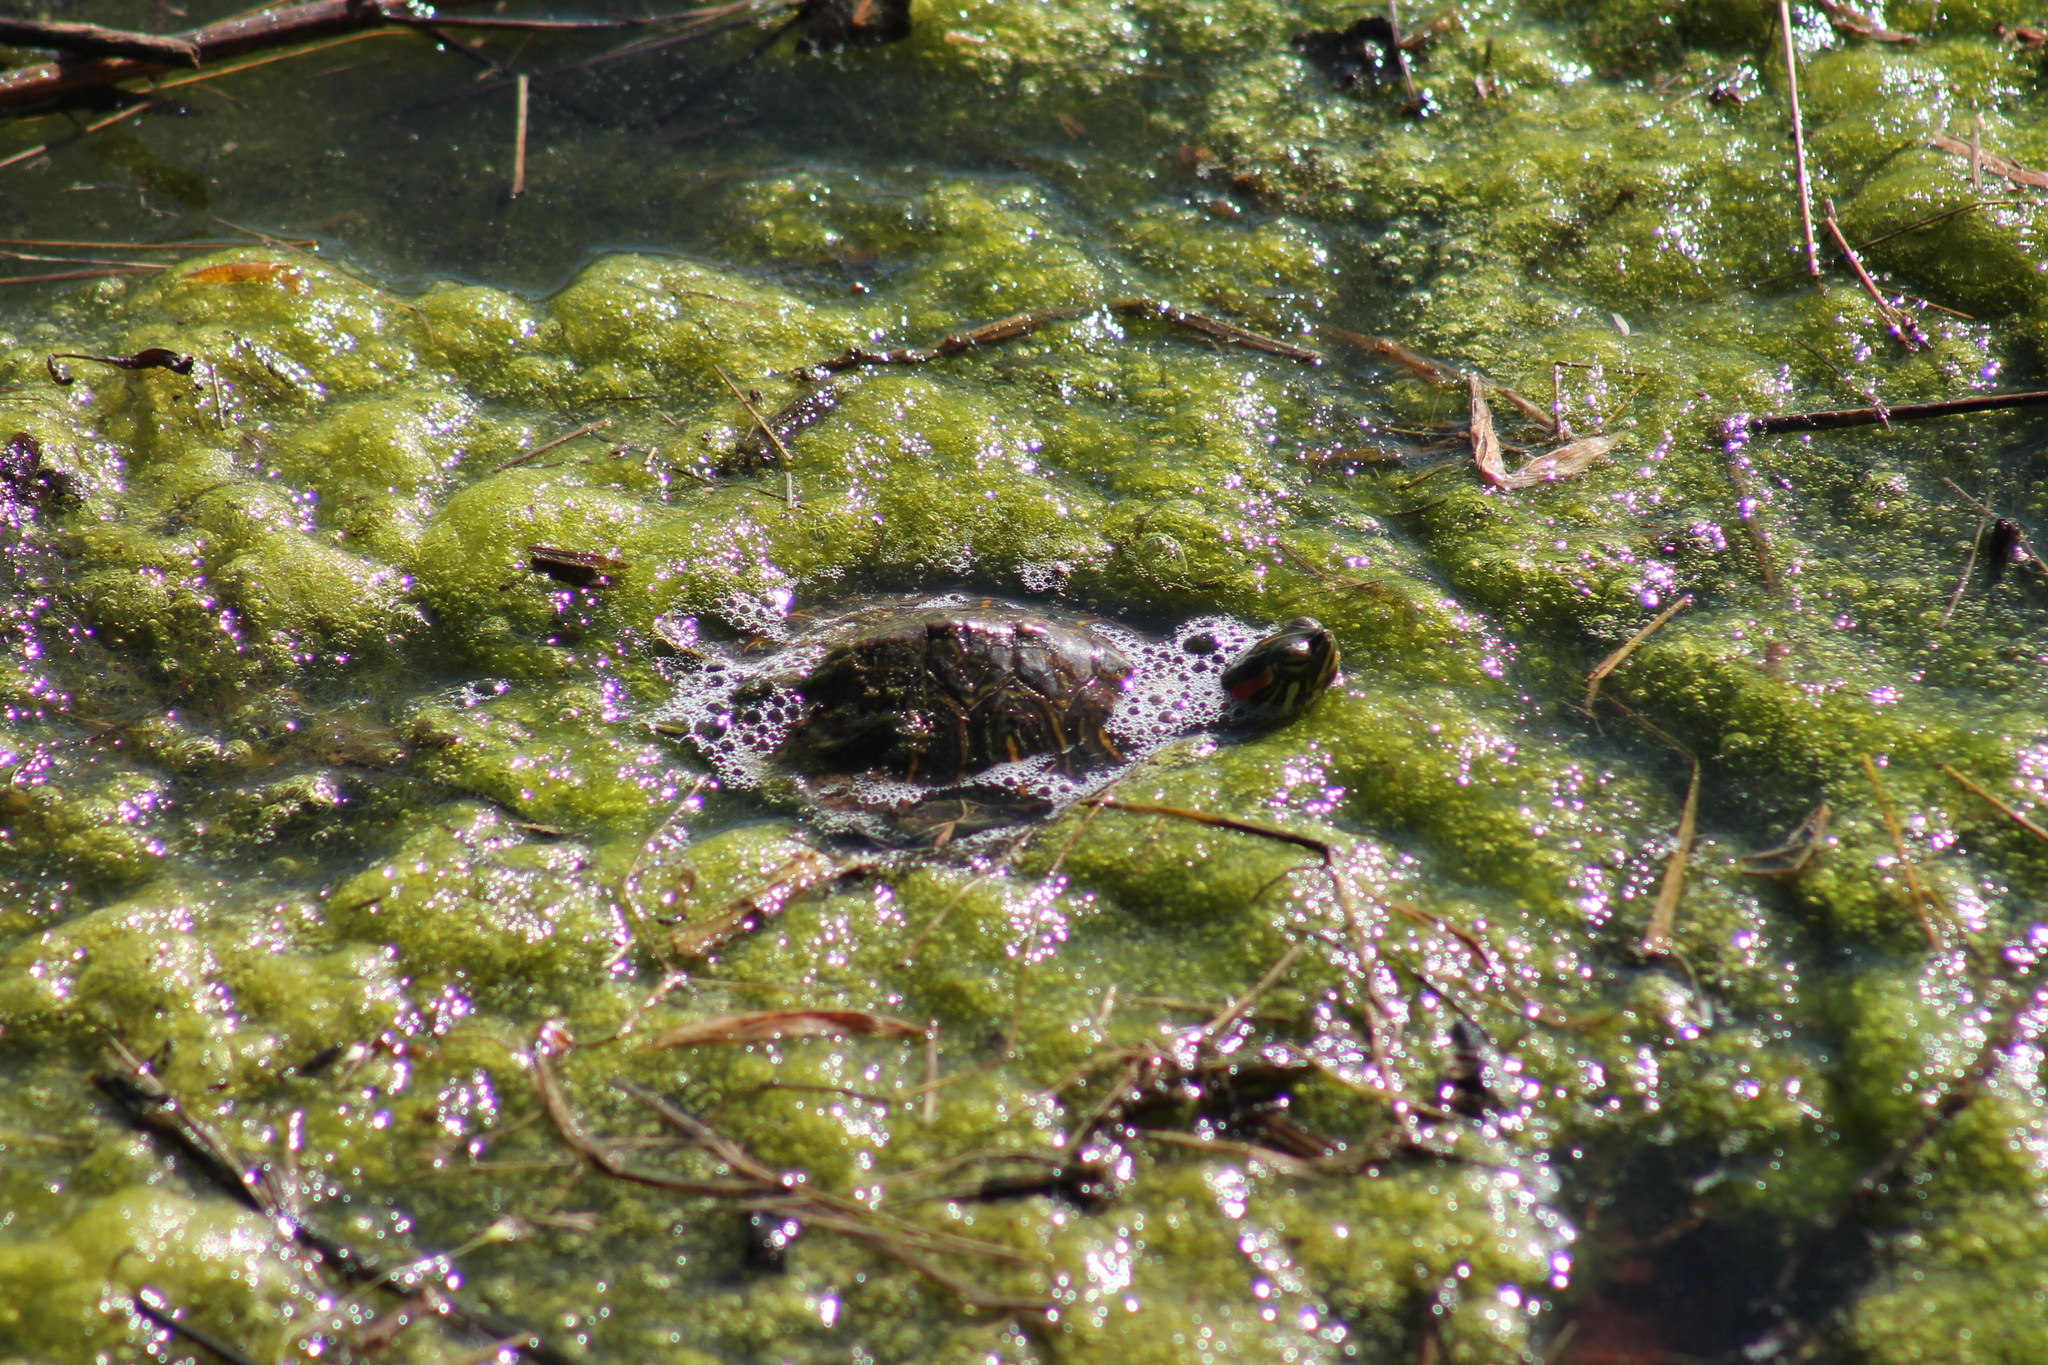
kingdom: Animalia
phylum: Chordata
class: Testudines
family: Emydidae
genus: Trachemys
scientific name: Trachemys scripta
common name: Slider
